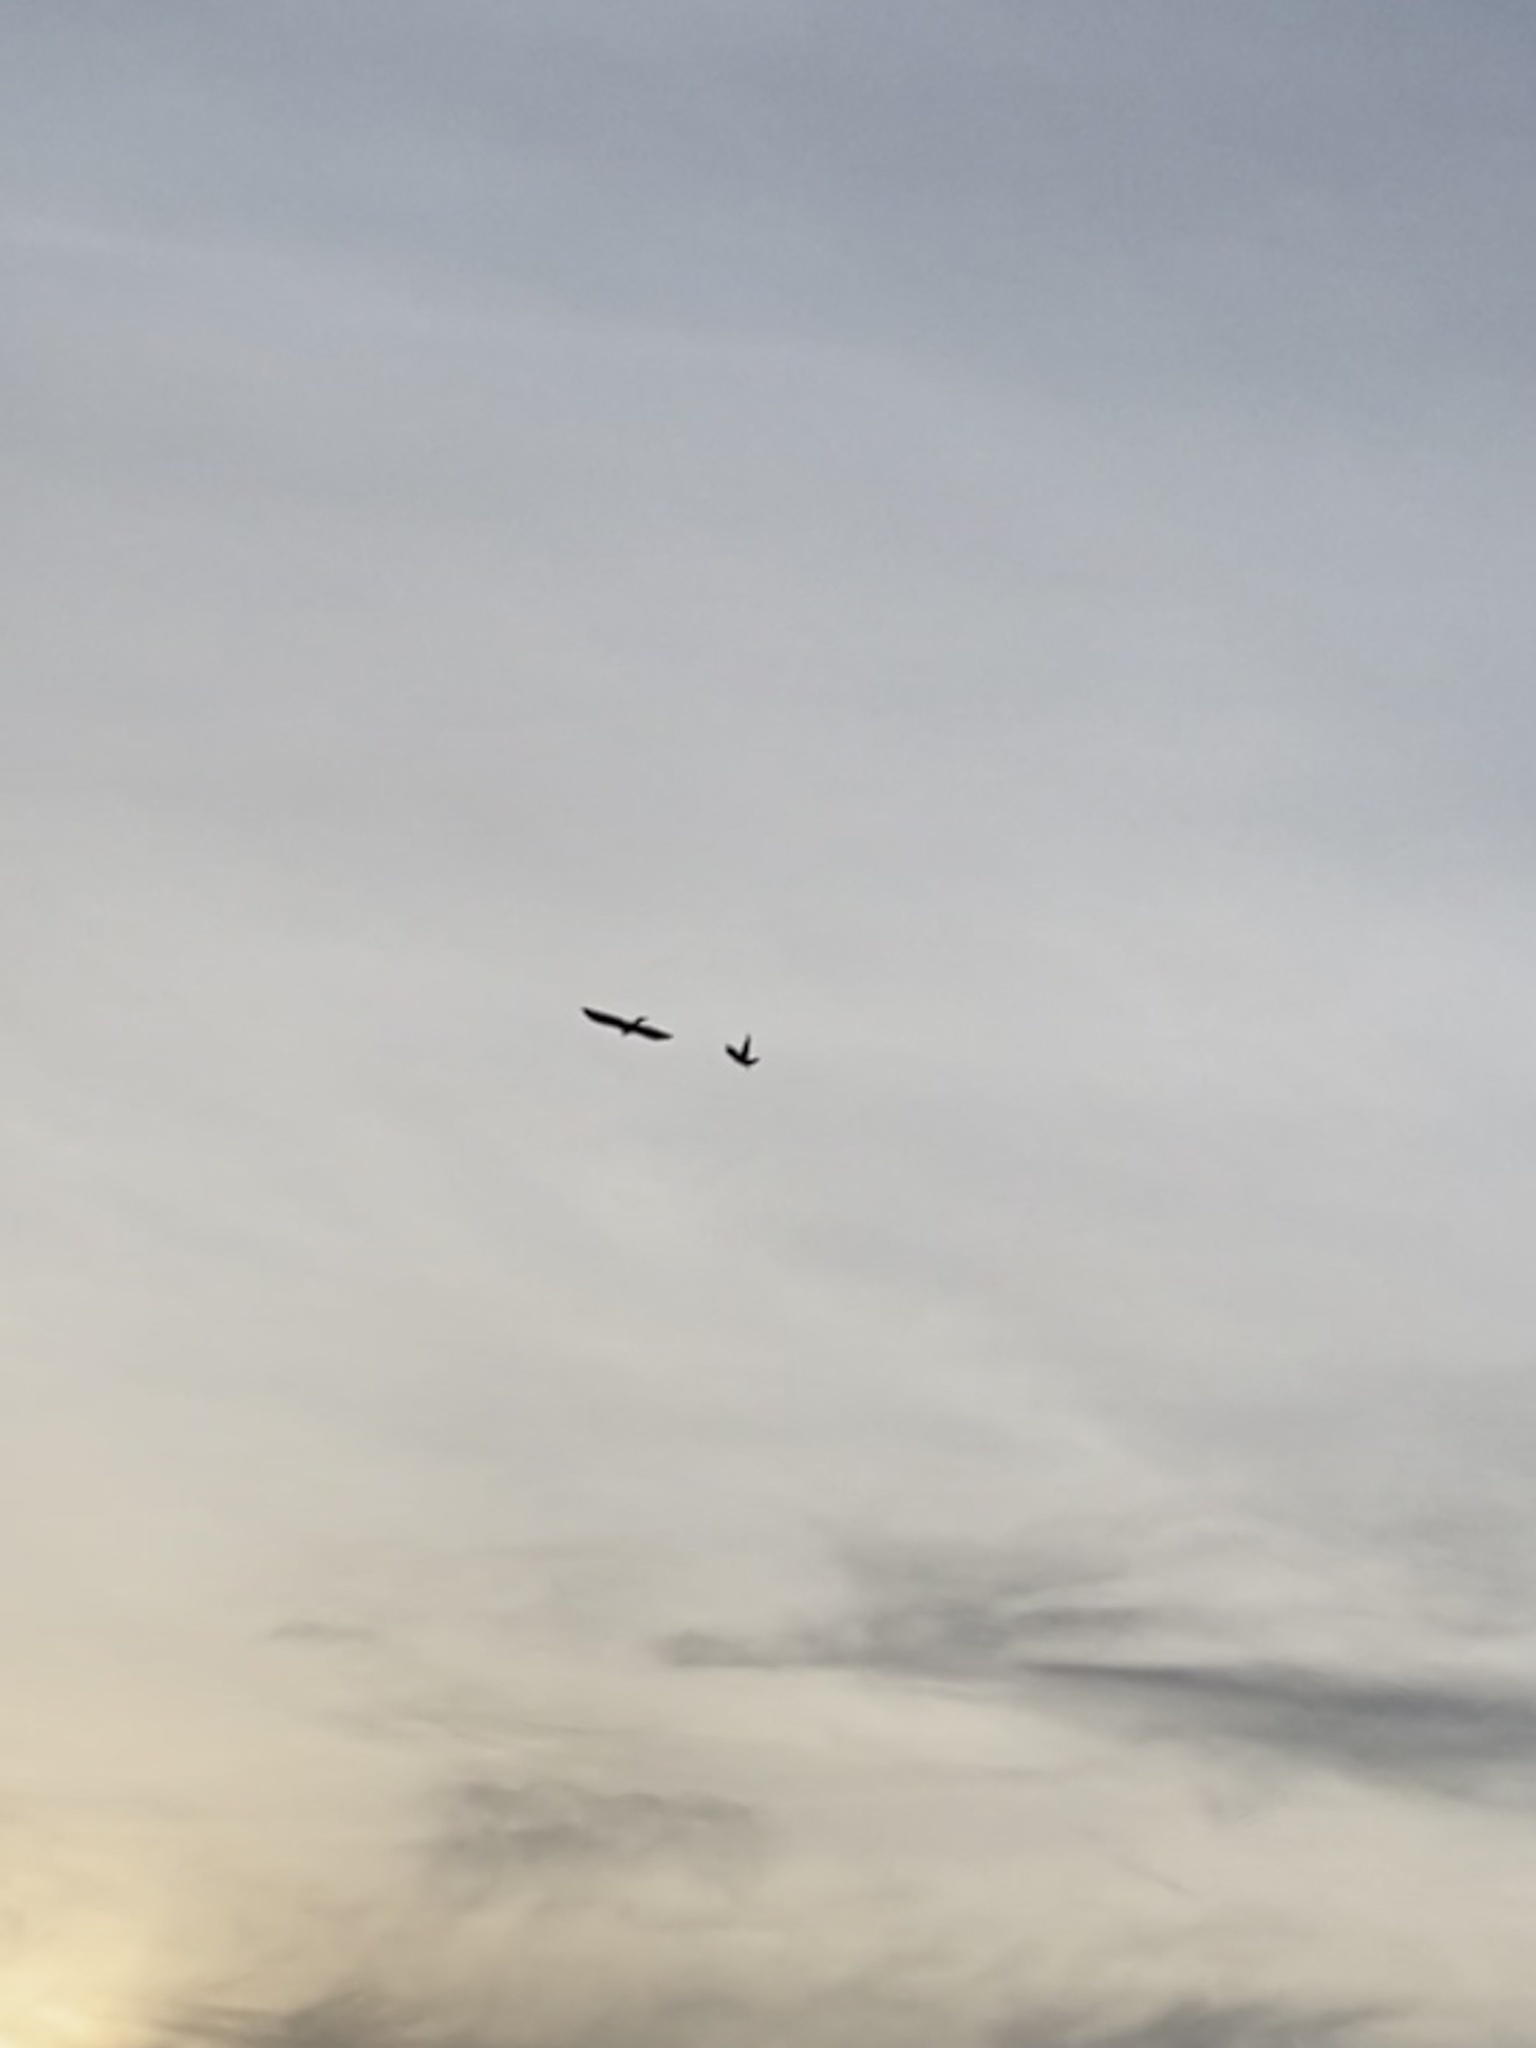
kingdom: Animalia
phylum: Chordata
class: Aves
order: Accipitriformes
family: Accipitridae
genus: Milvus
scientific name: Milvus milvus
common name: Red kite
